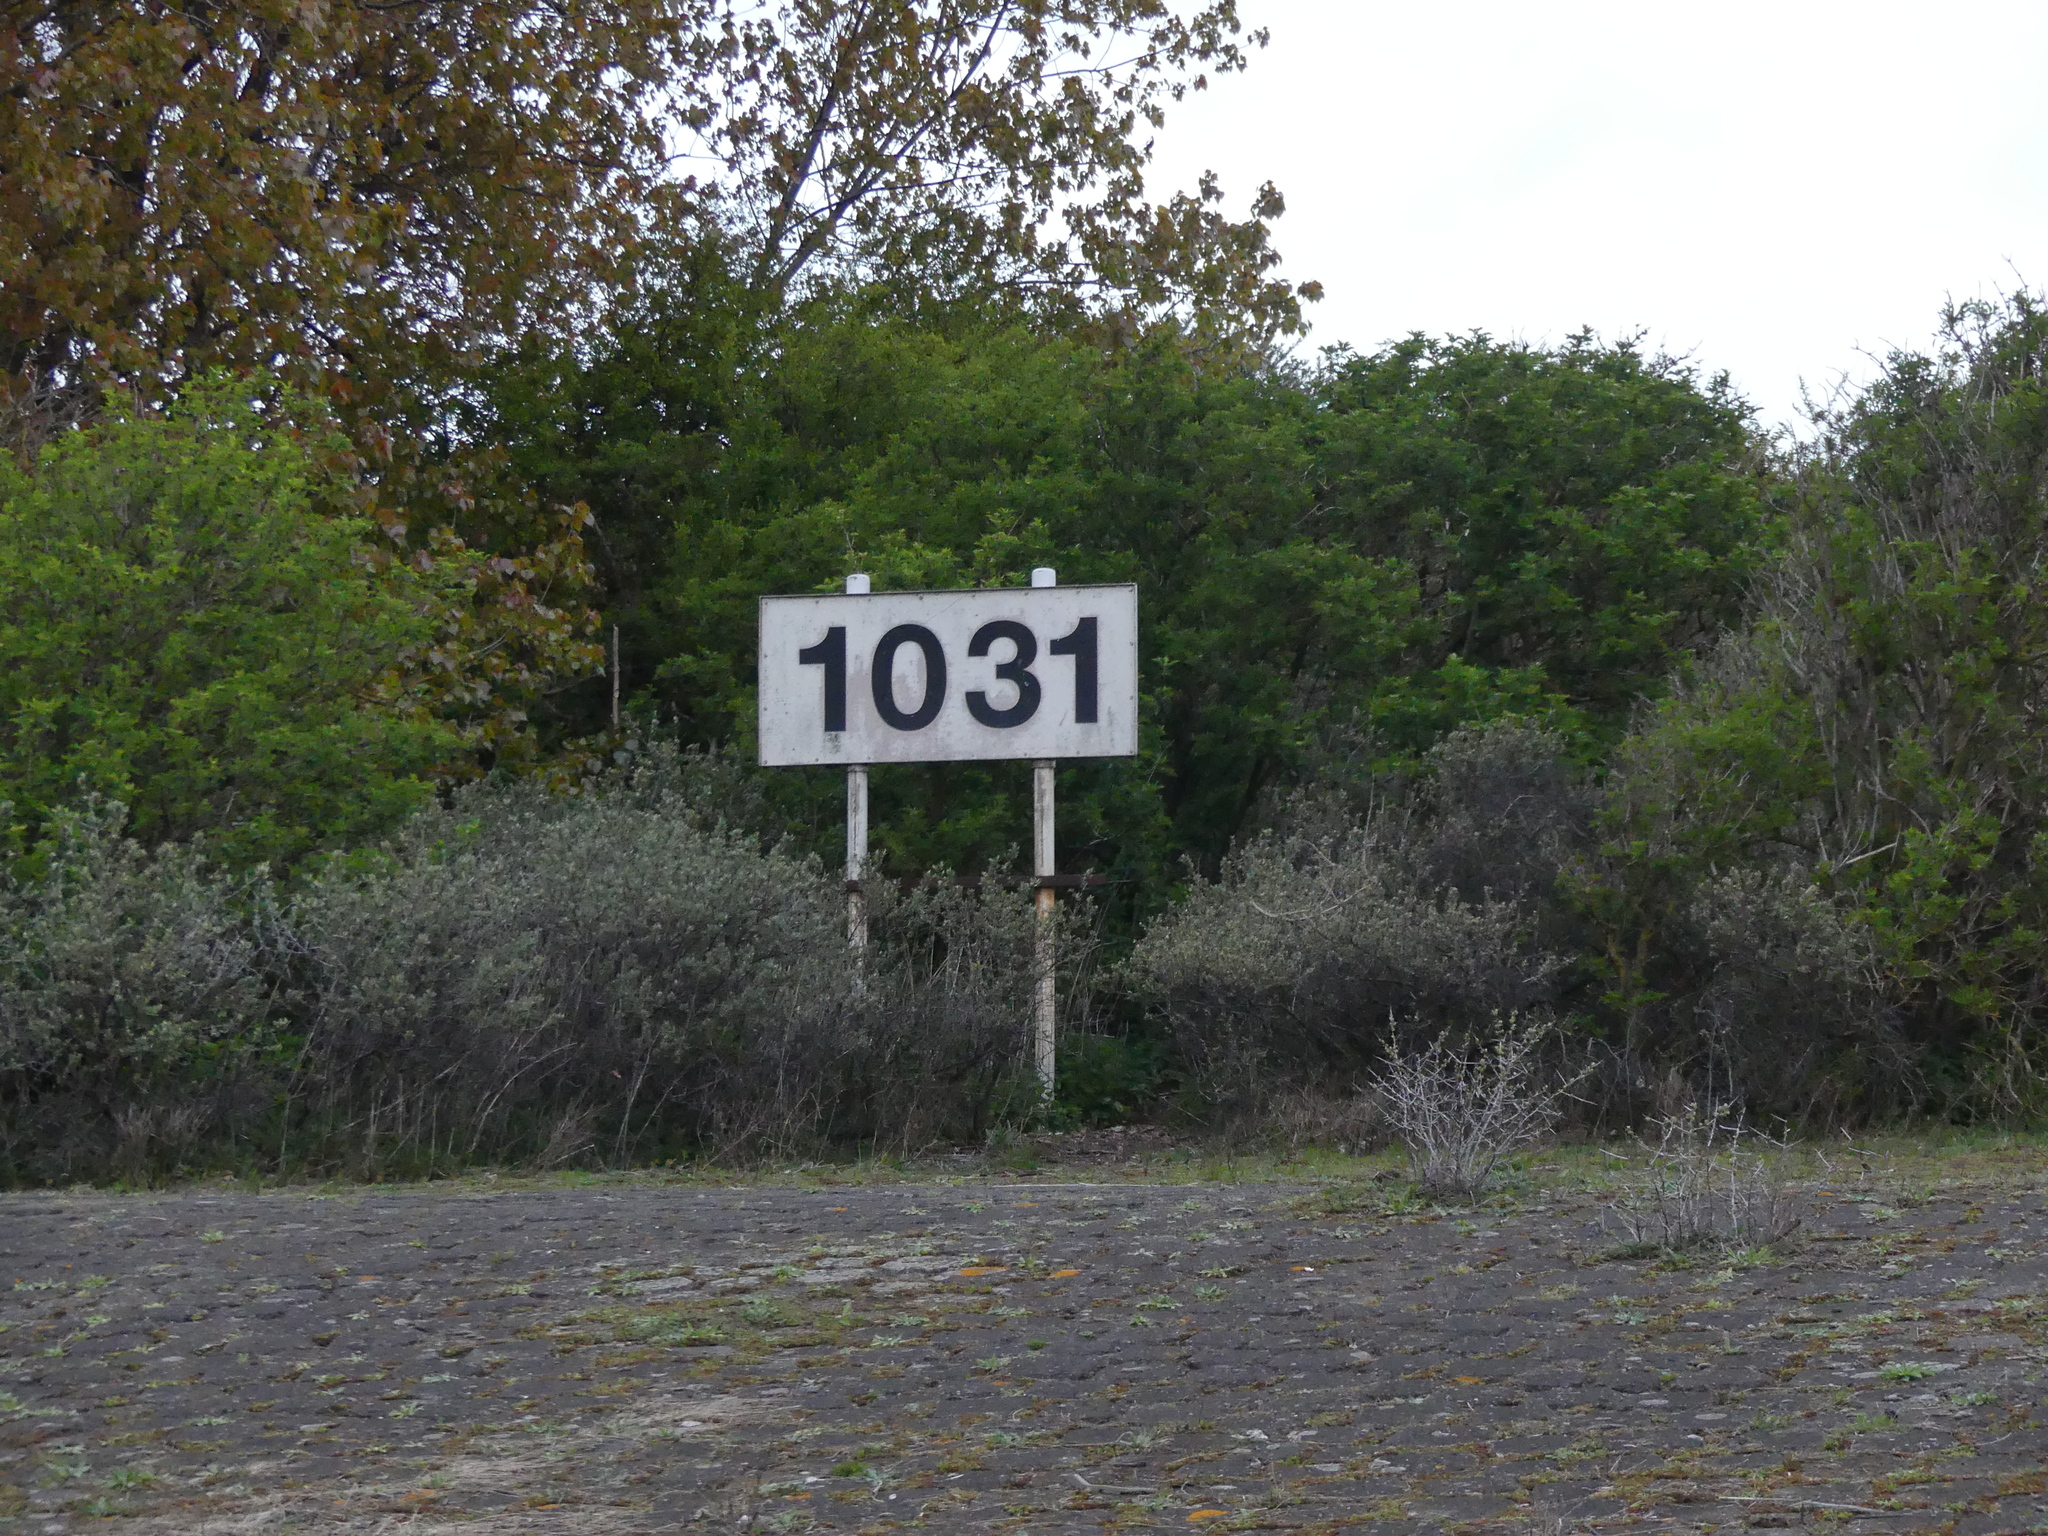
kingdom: Plantae
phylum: Tracheophyta
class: Magnoliopsida
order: Rosales
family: Elaeagnaceae
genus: Hippophae
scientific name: Hippophae rhamnoides
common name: Sea-buckthorn
